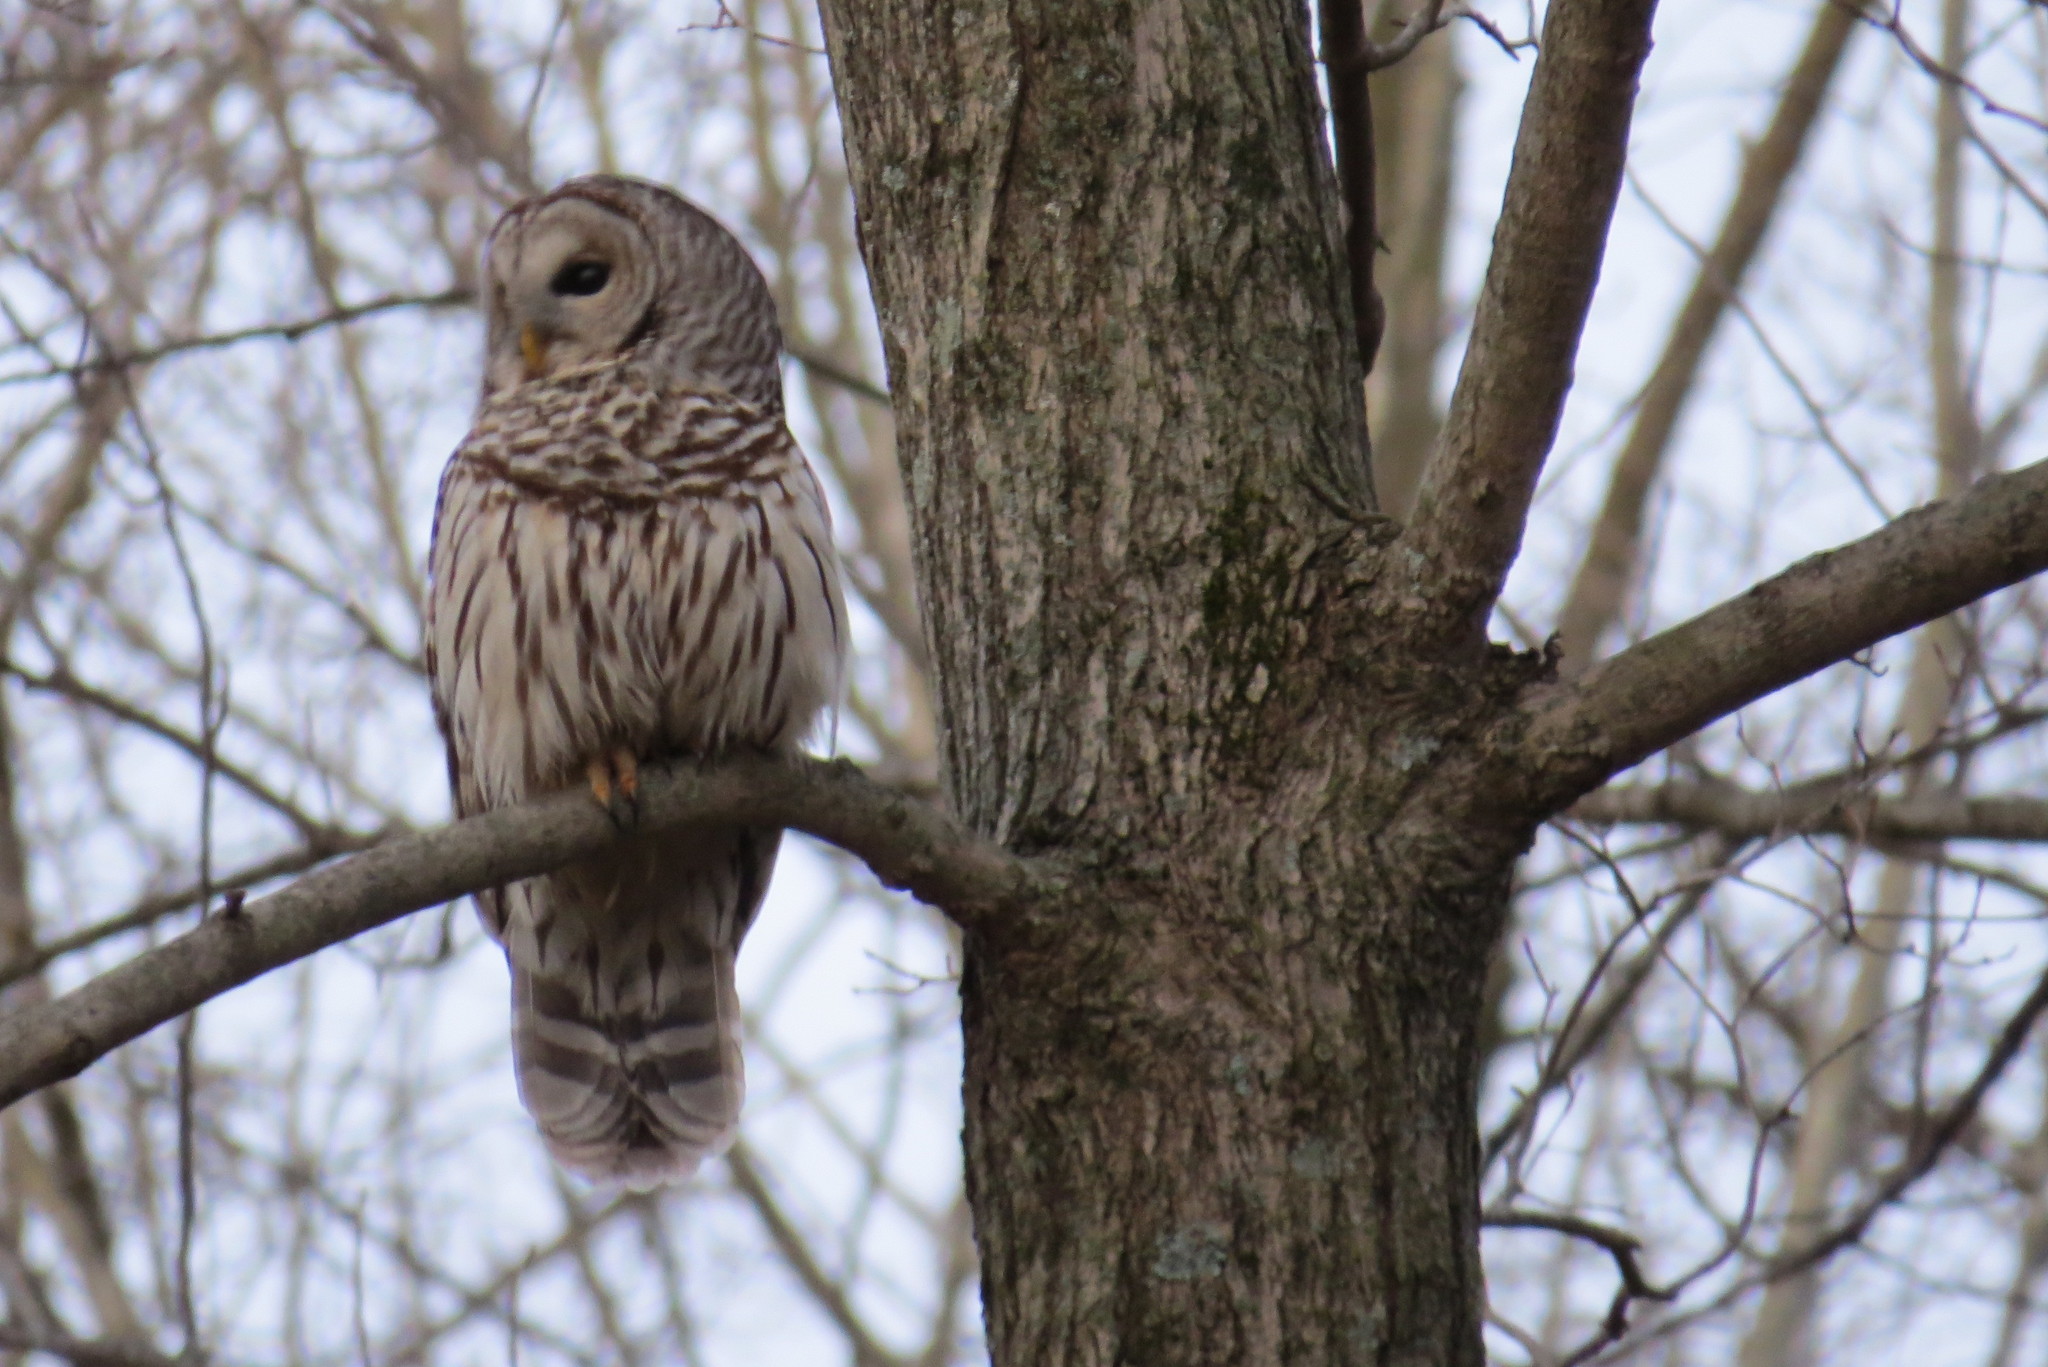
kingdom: Animalia
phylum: Chordata
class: Aves
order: Strigiformes
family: Strigidae
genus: Strix
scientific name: Strix varia
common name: Barred owl
